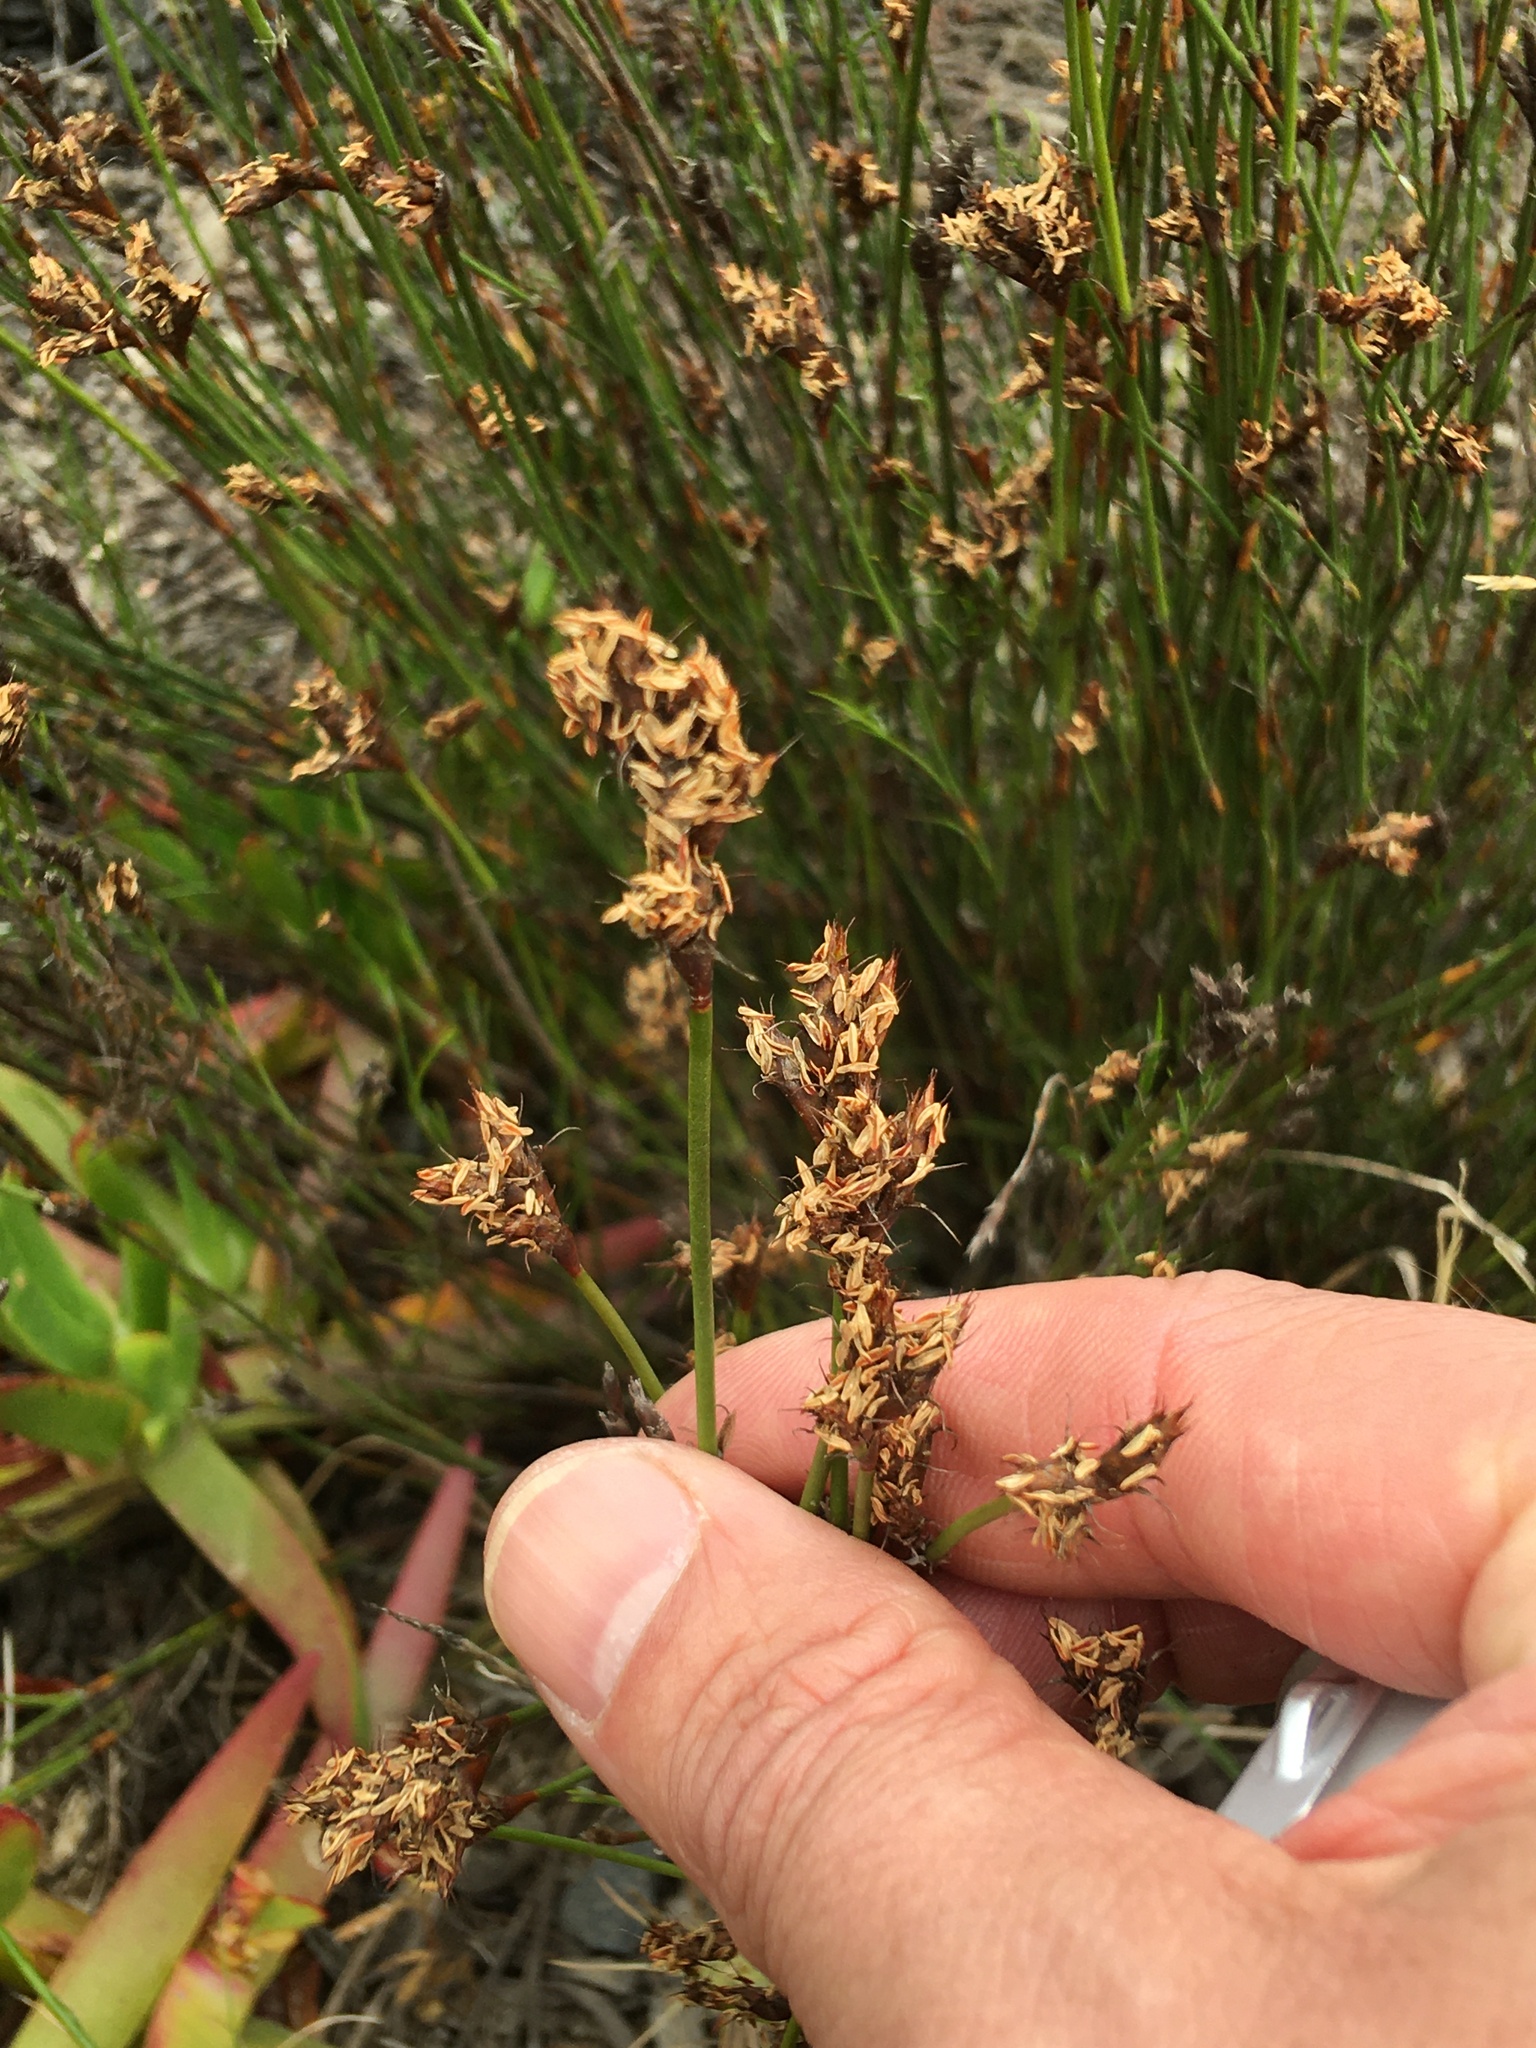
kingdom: Plantae
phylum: Tracheophyta
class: Liliopsida
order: Poales
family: Restionaceae
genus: Restio
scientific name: Restio capensis
